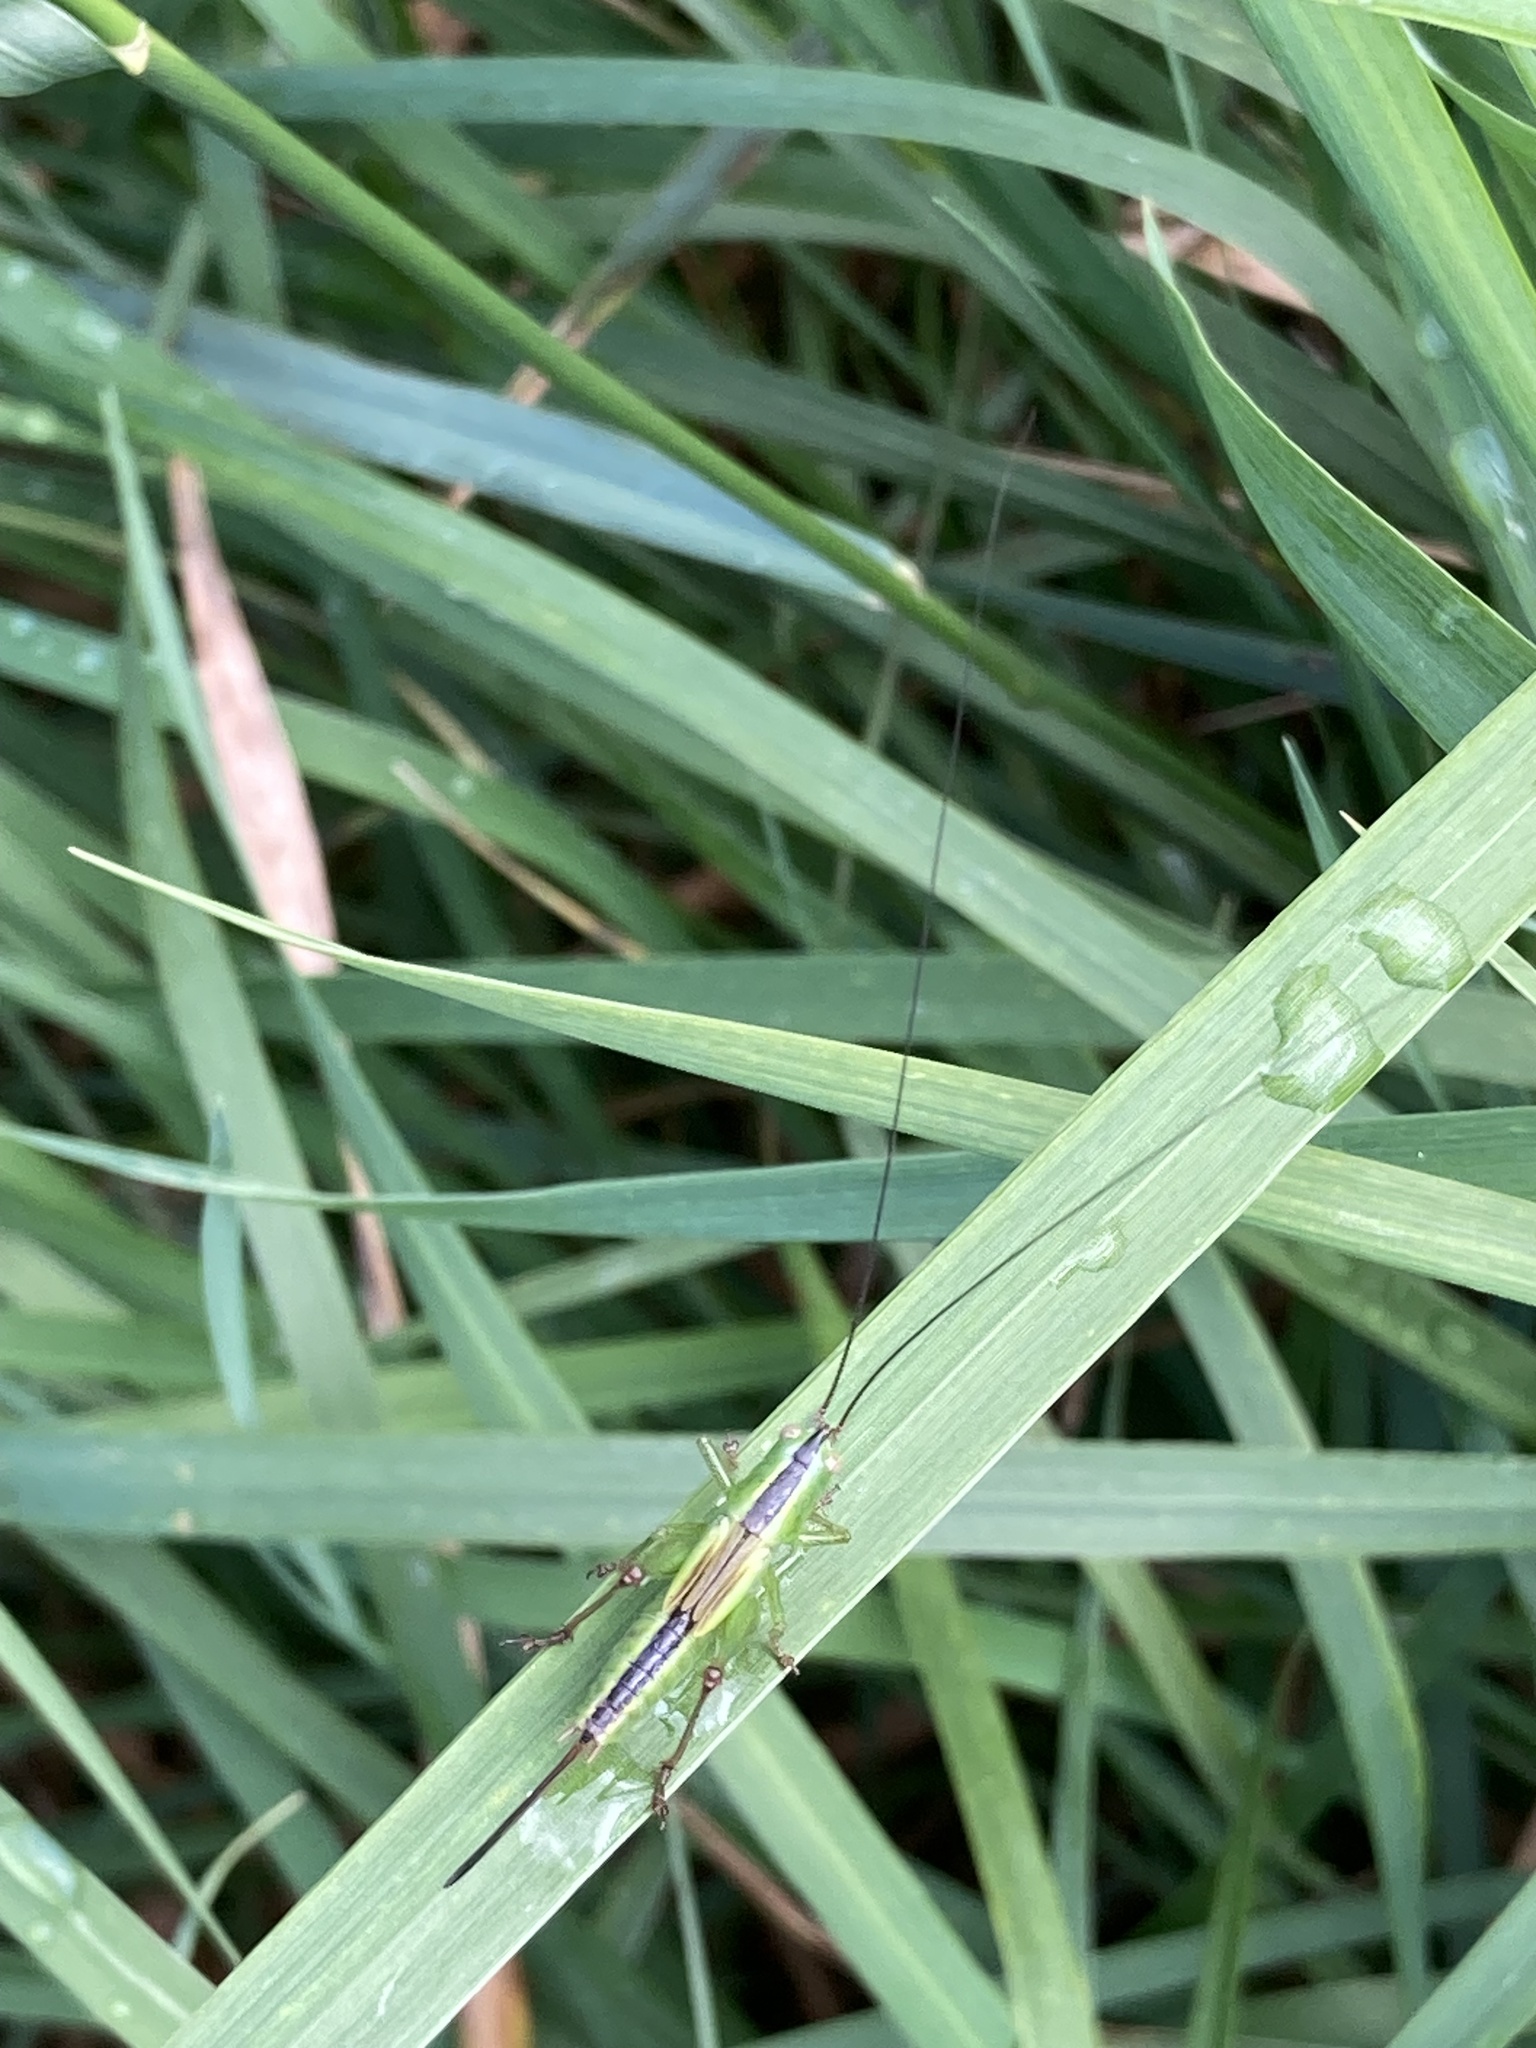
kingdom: Animalia
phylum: Arthropoda
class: Insecta
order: Orthoptera
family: Tettigoniidae
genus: Conocephalus
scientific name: Conocephalus fuscus
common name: Long-winged conehead
